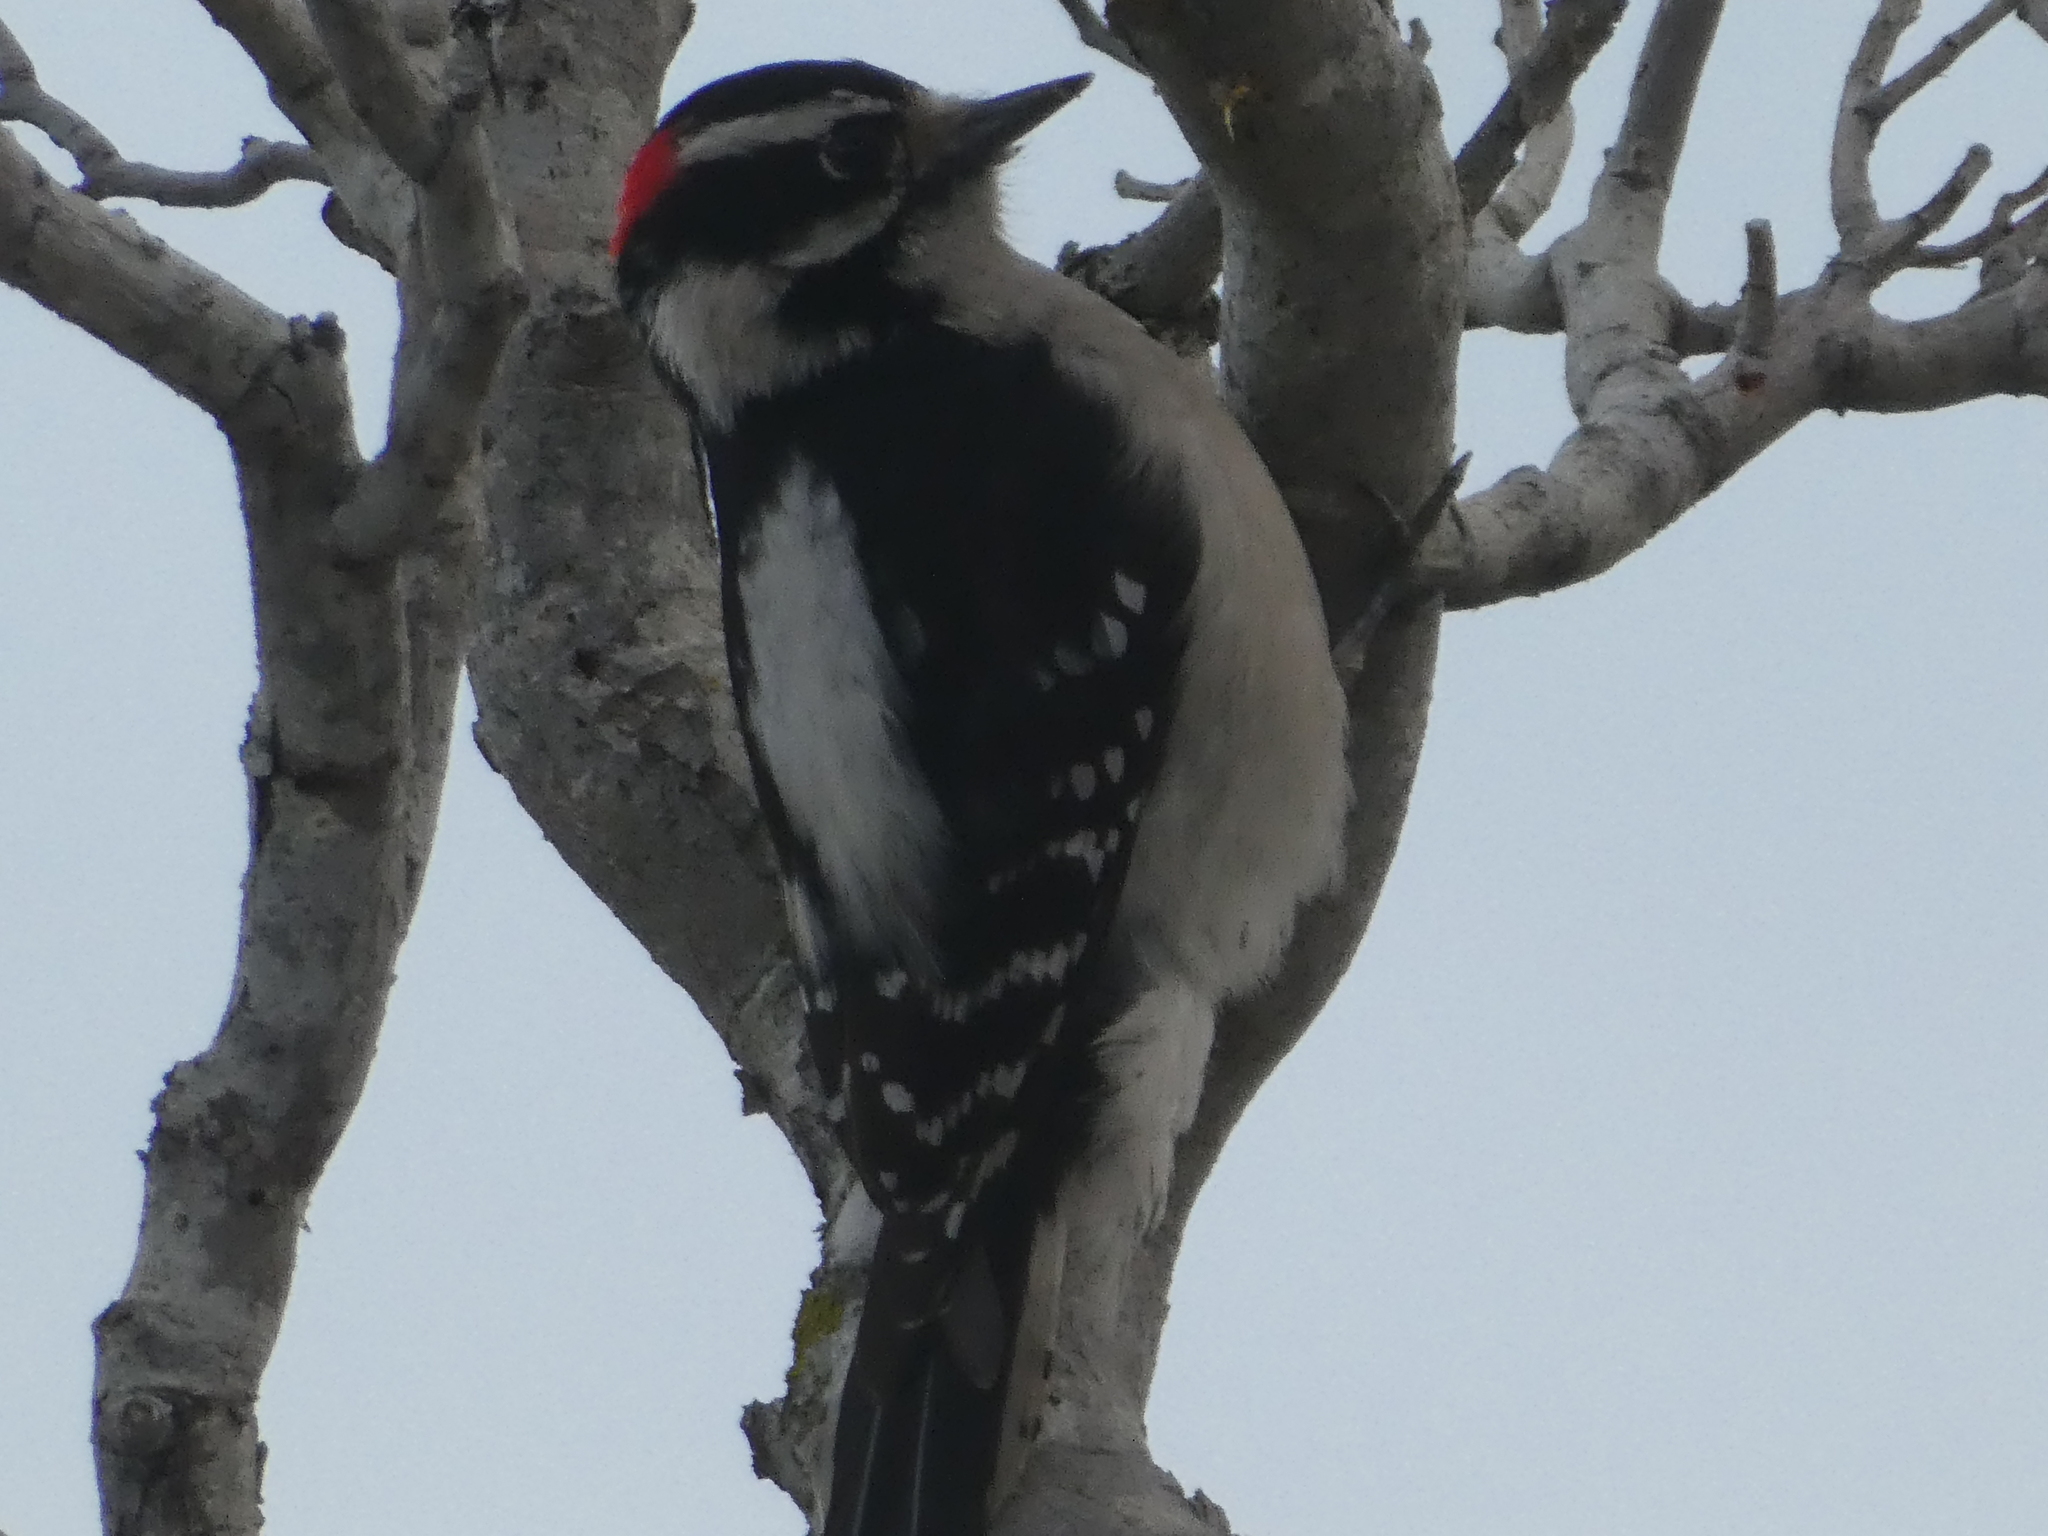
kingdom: Animalia
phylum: Chordata
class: Aves
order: Piciformes
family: Picidae
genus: Dryobates
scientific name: Dryobates pubescens
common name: Downy woodpecker
